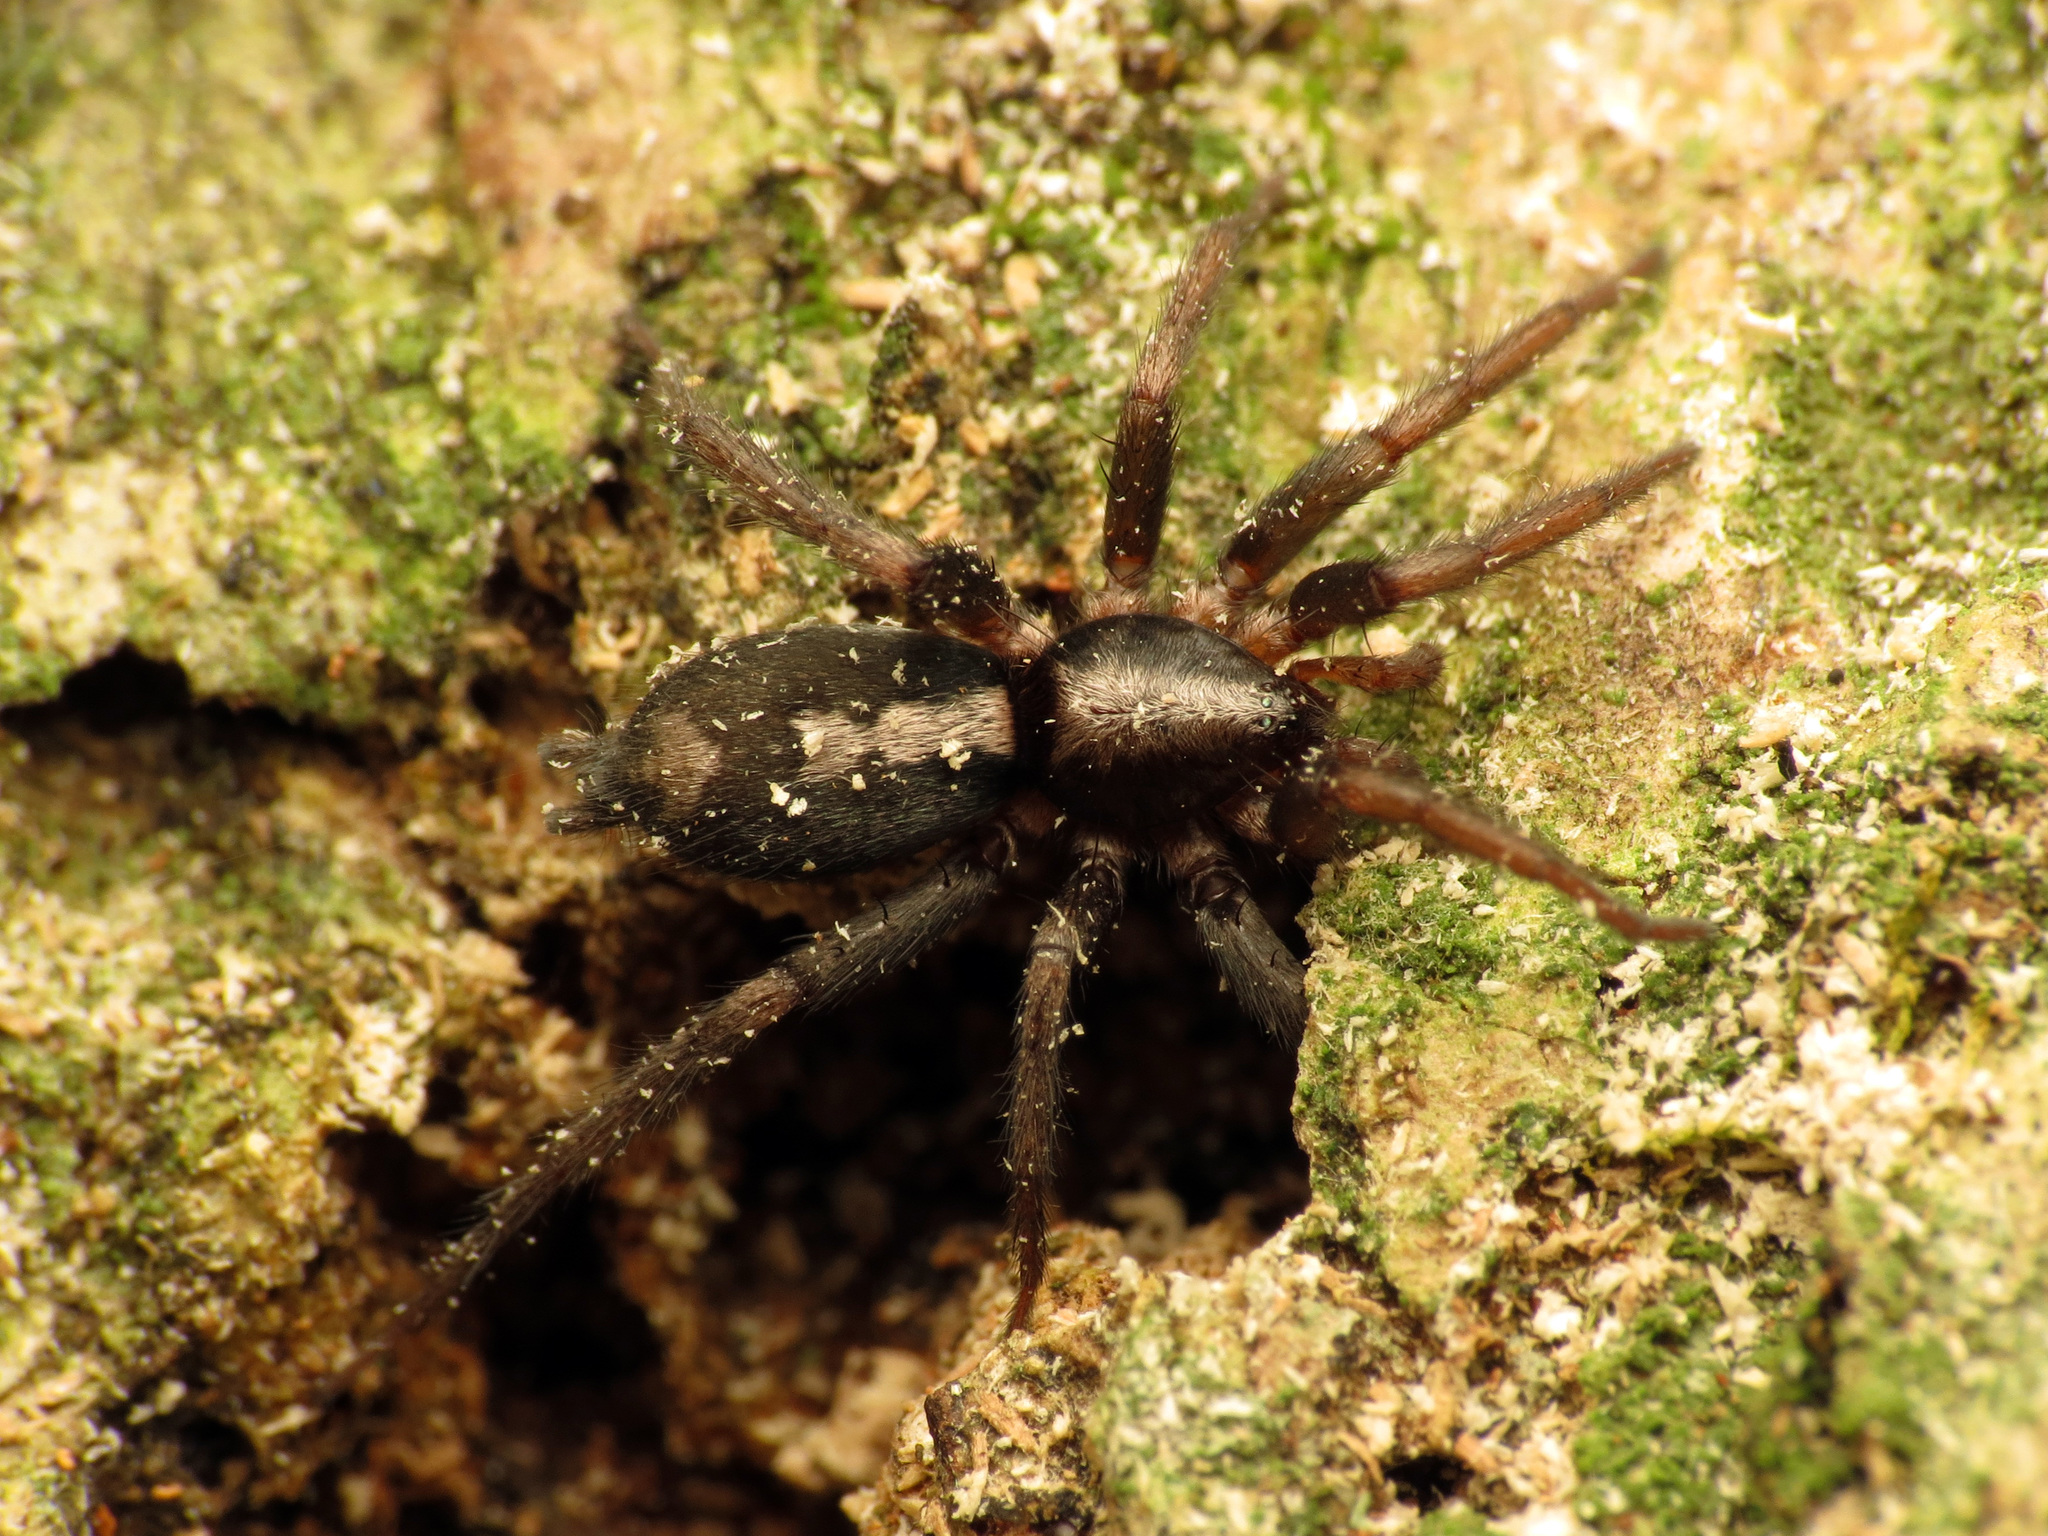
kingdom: Animalia
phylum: Arthropoda
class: Arachnida
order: Araneae
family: Gnaphosidae
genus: Herpyllus
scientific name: Herpyllus ecclesiasticus
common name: Eastern parson spider
